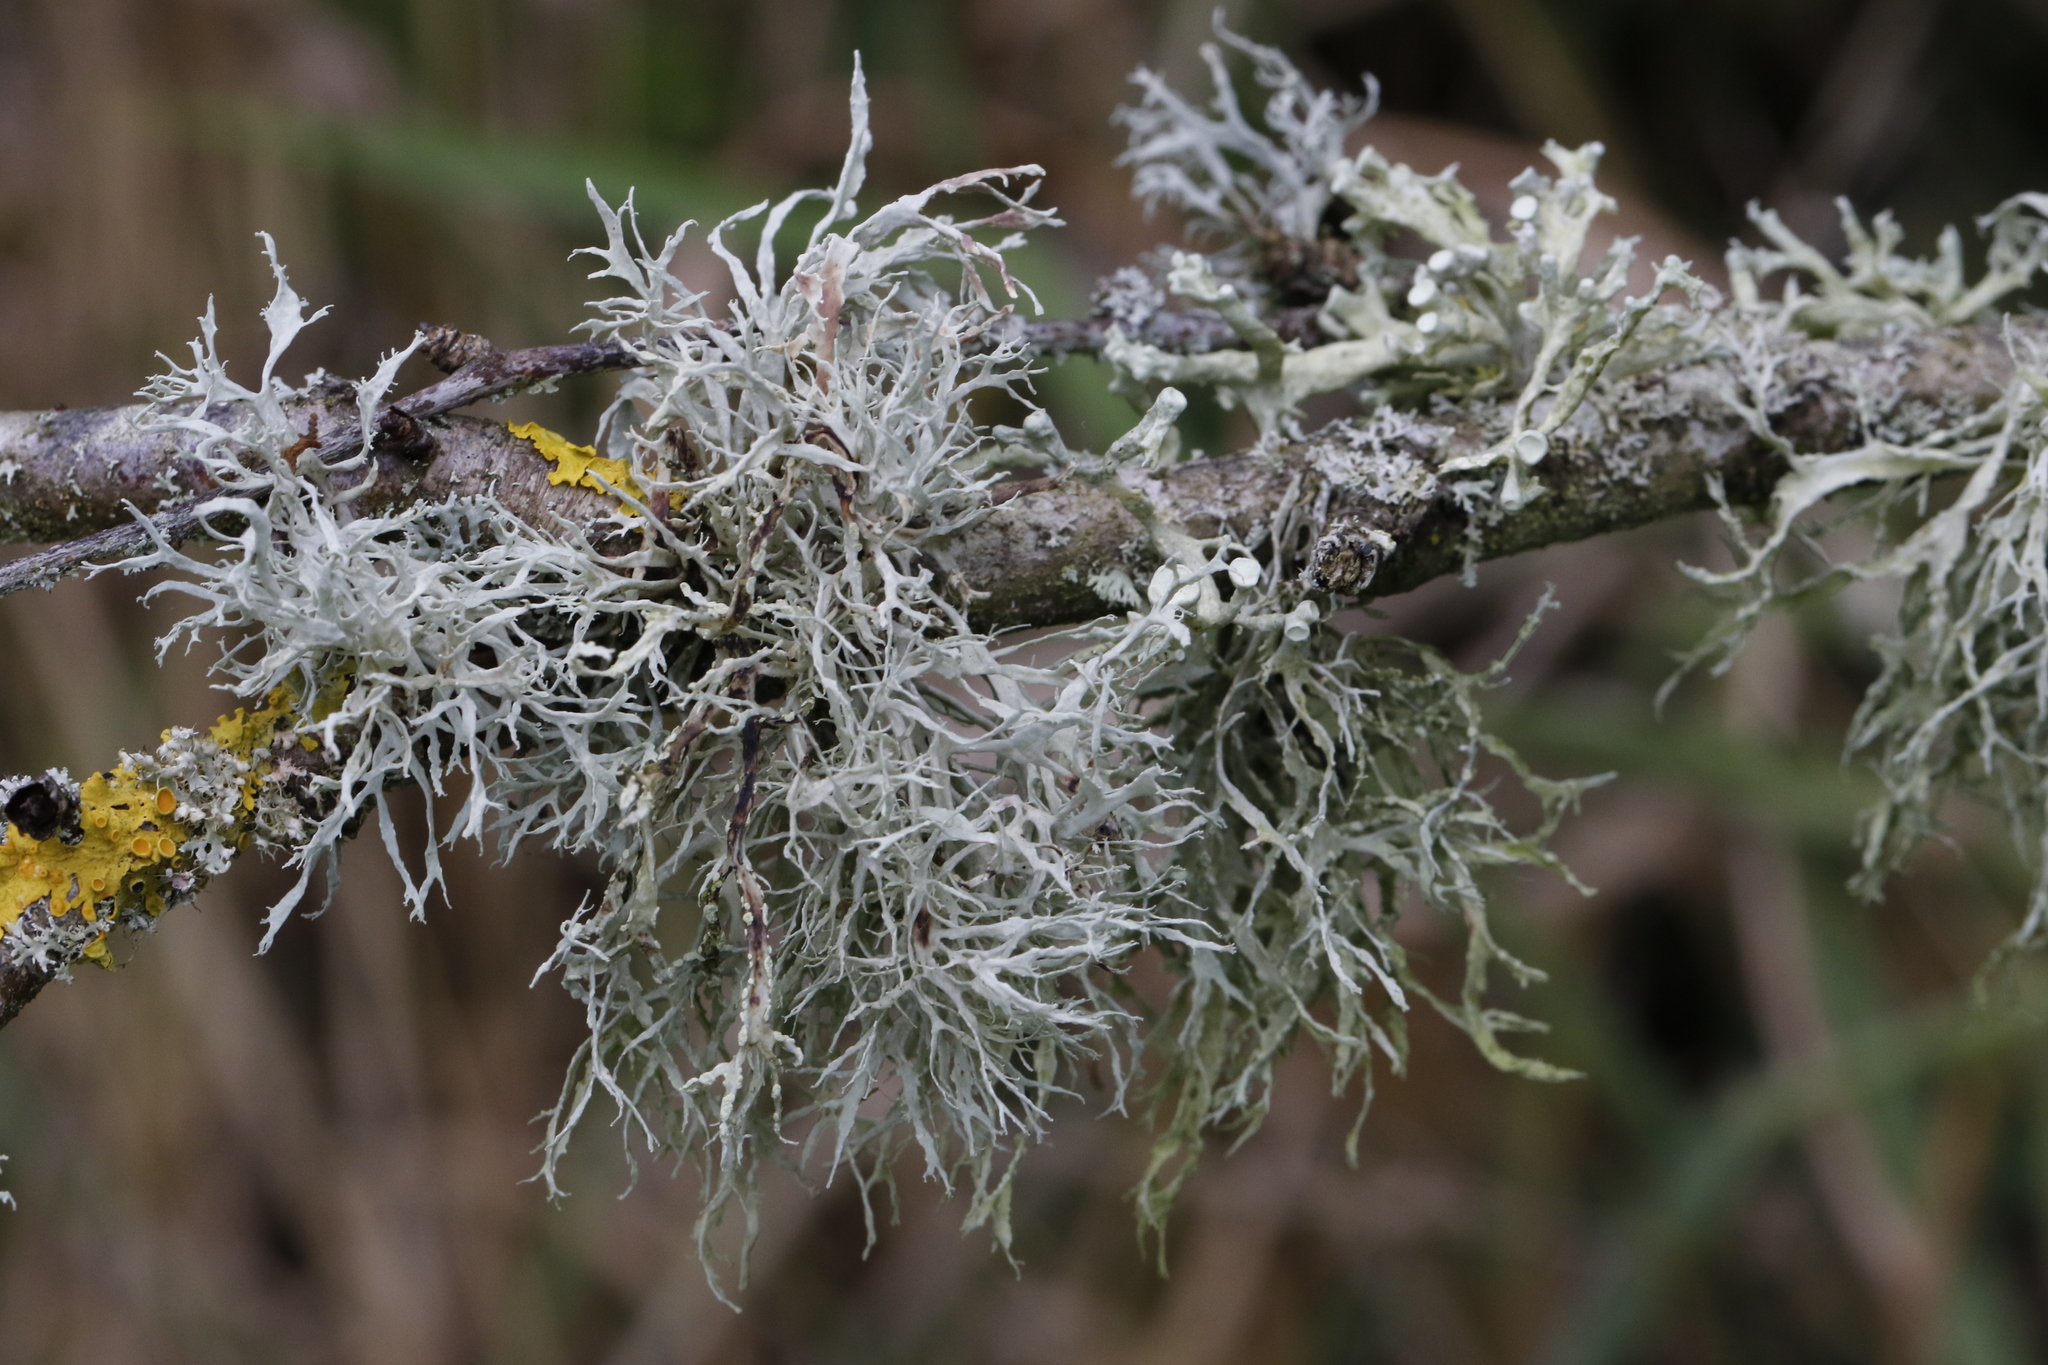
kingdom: Fungi
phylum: Ascomycota
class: Lecanoromycetes
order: Lecanorales
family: Ramalinaceae
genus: Ramalina
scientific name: Ramalina farinacea
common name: Farinose cartilage lichen
